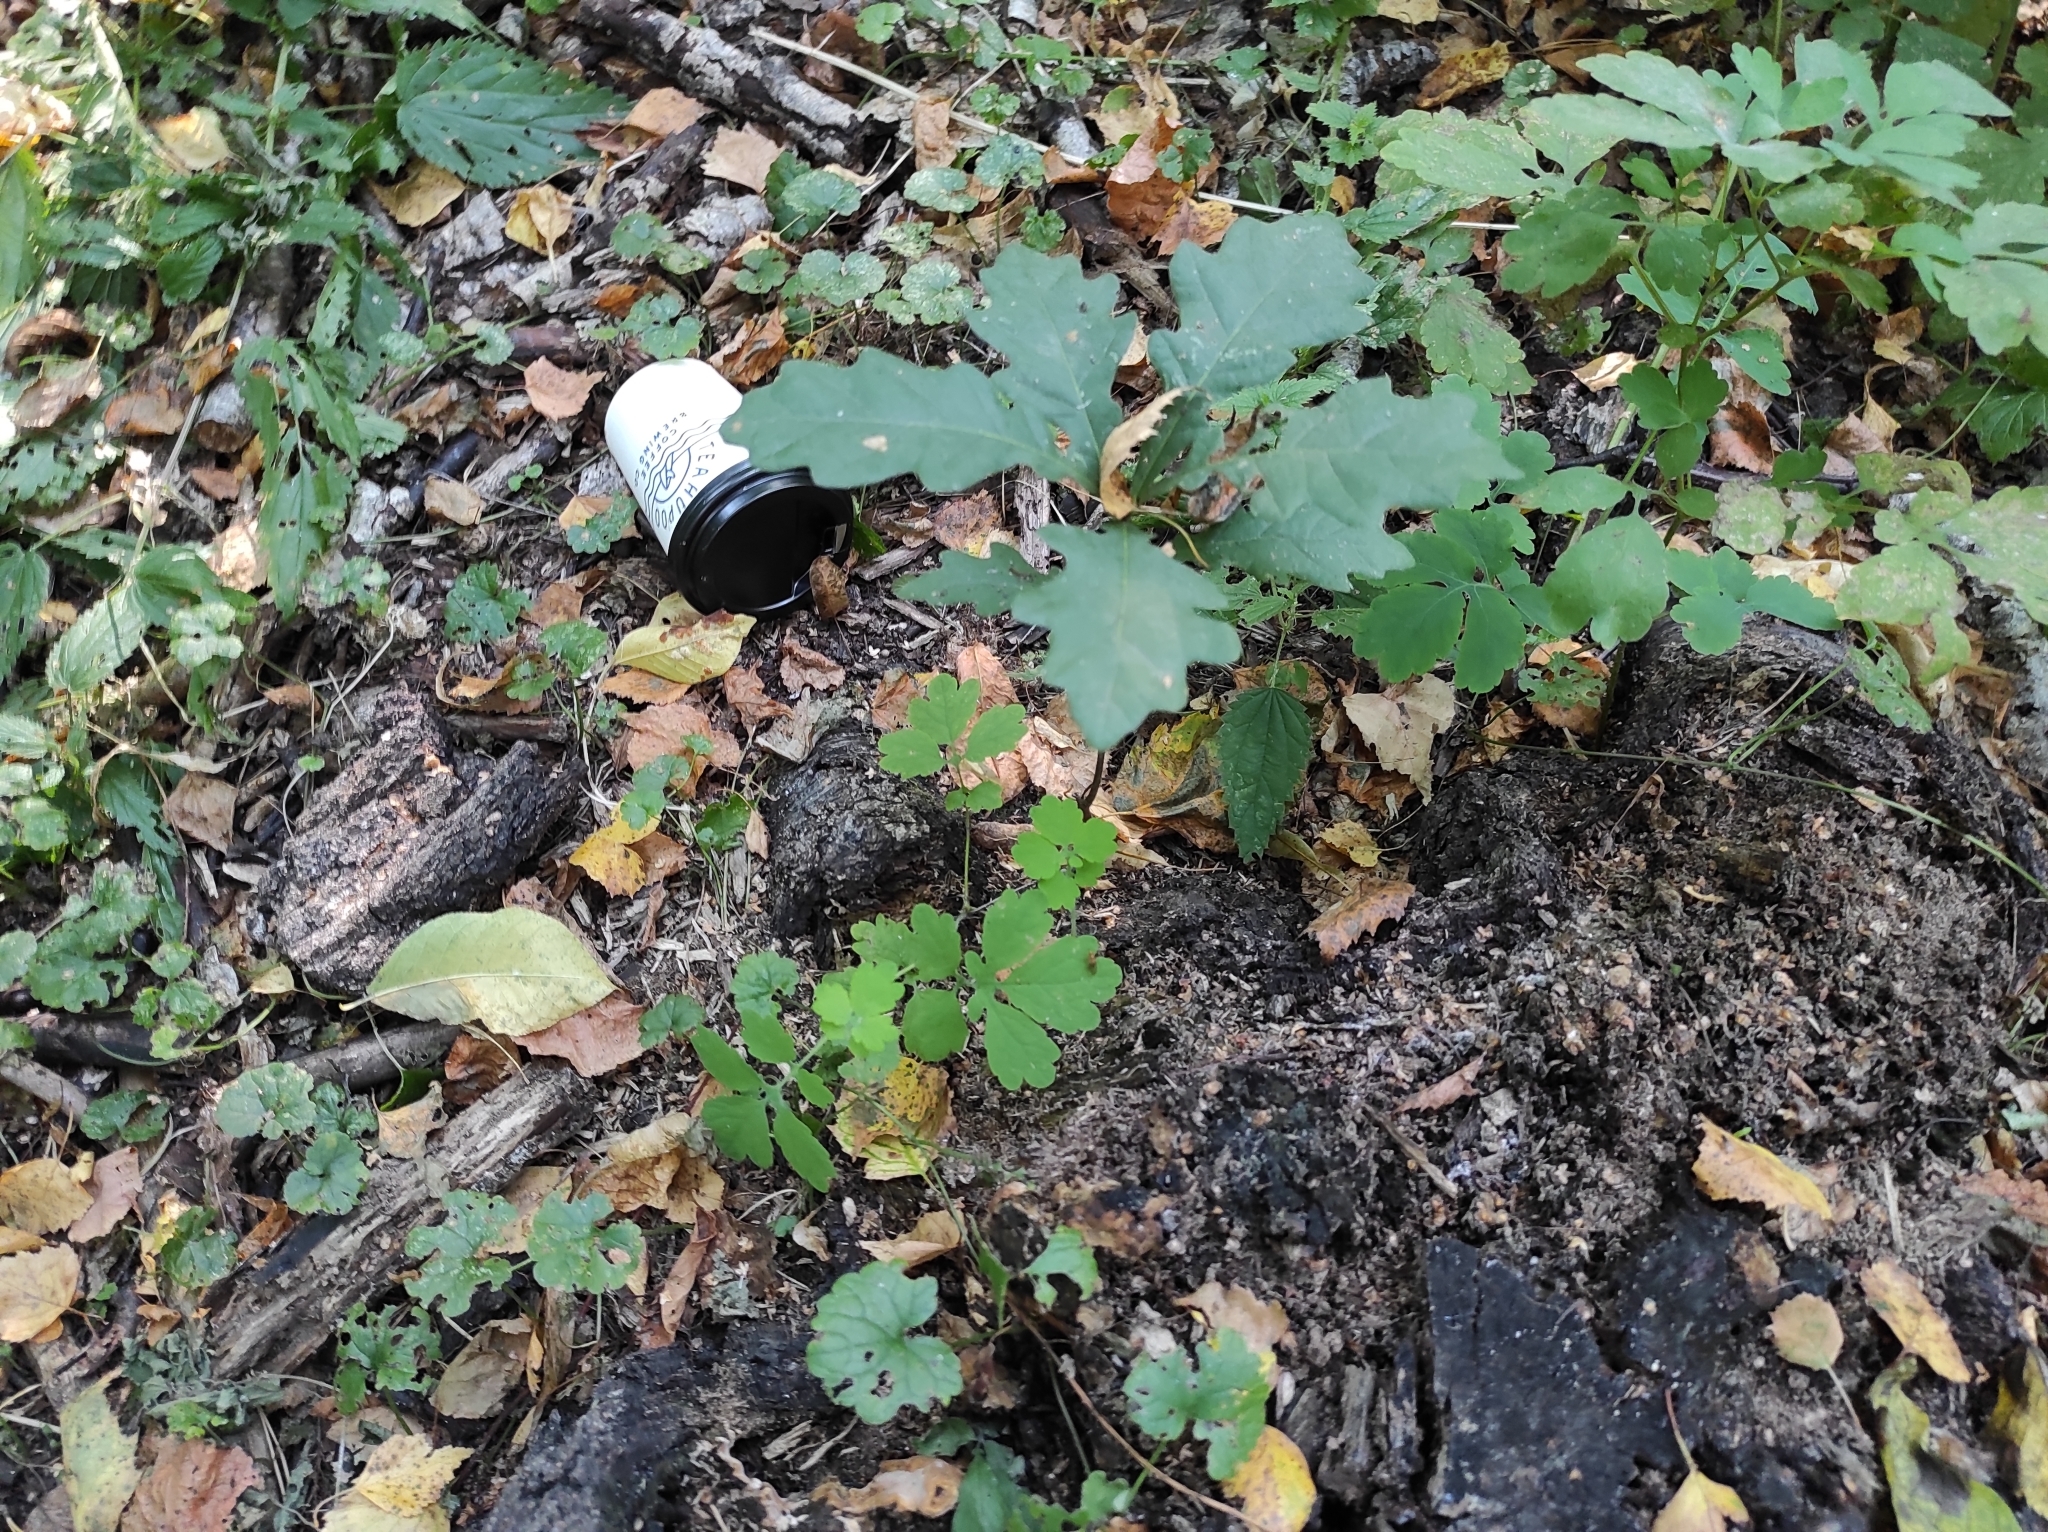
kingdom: Plantae
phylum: Tracheophyta
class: Magnoliopsida
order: Fagales
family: Fagaceae
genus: Quercus
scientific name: Quercus robur
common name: Pedunculate oak
